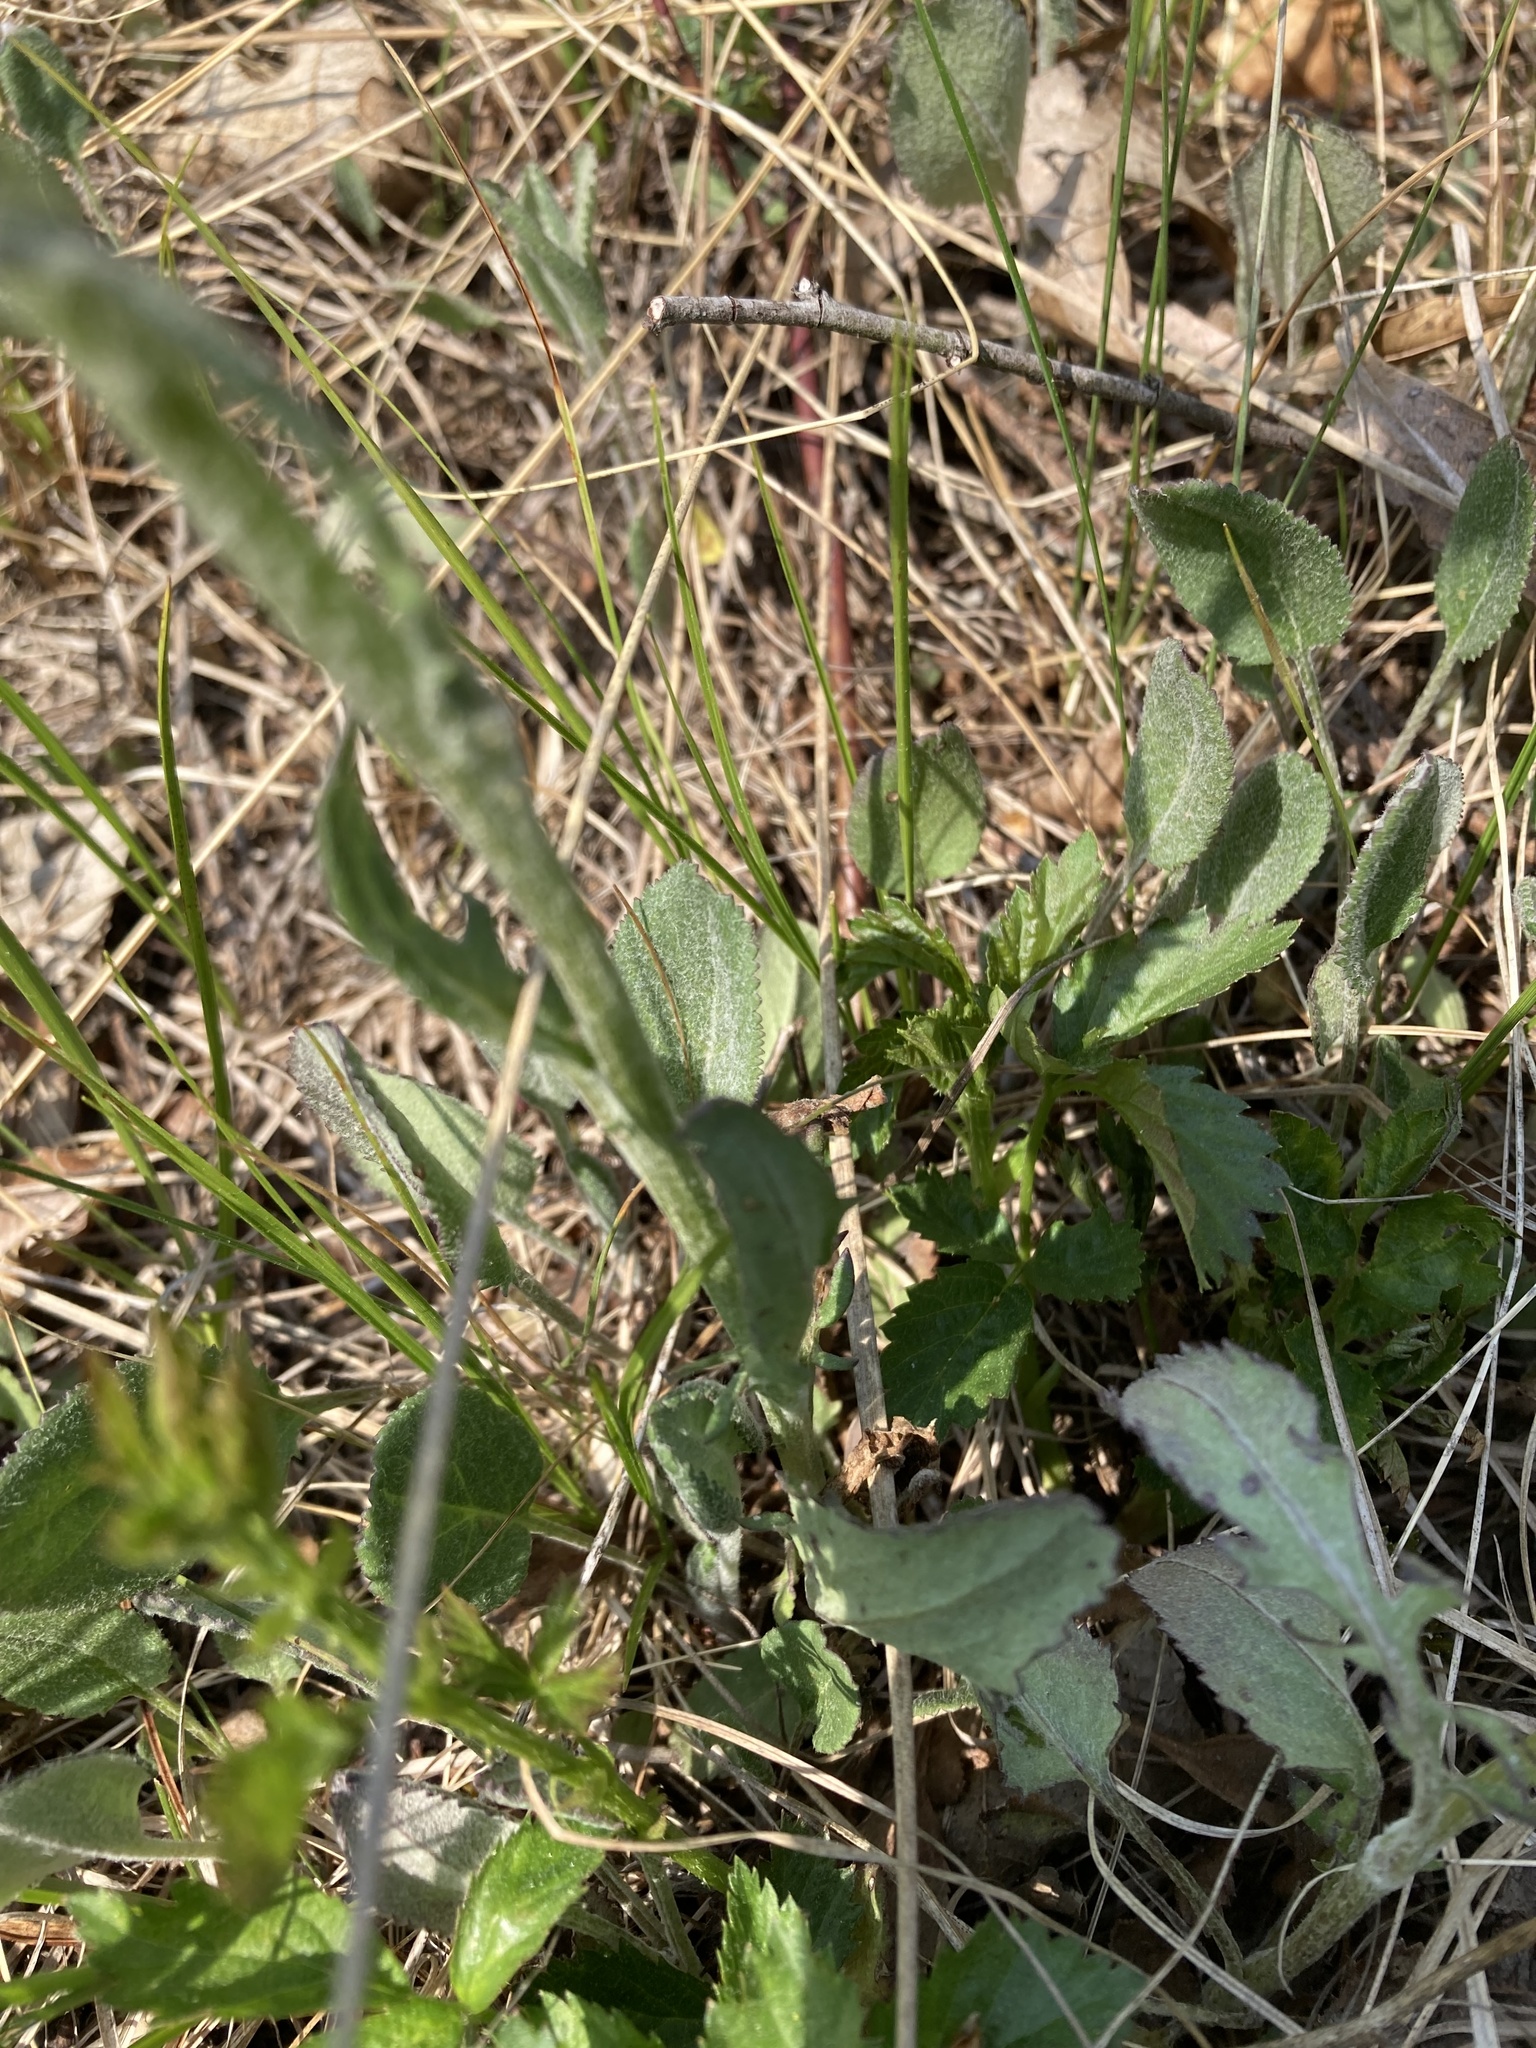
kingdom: Plantae
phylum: Tracheophyta
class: Magnoliopsida
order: Asterales
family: Asteraceae
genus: Packera
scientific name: Packera paupercula
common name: Balsam groundsel
